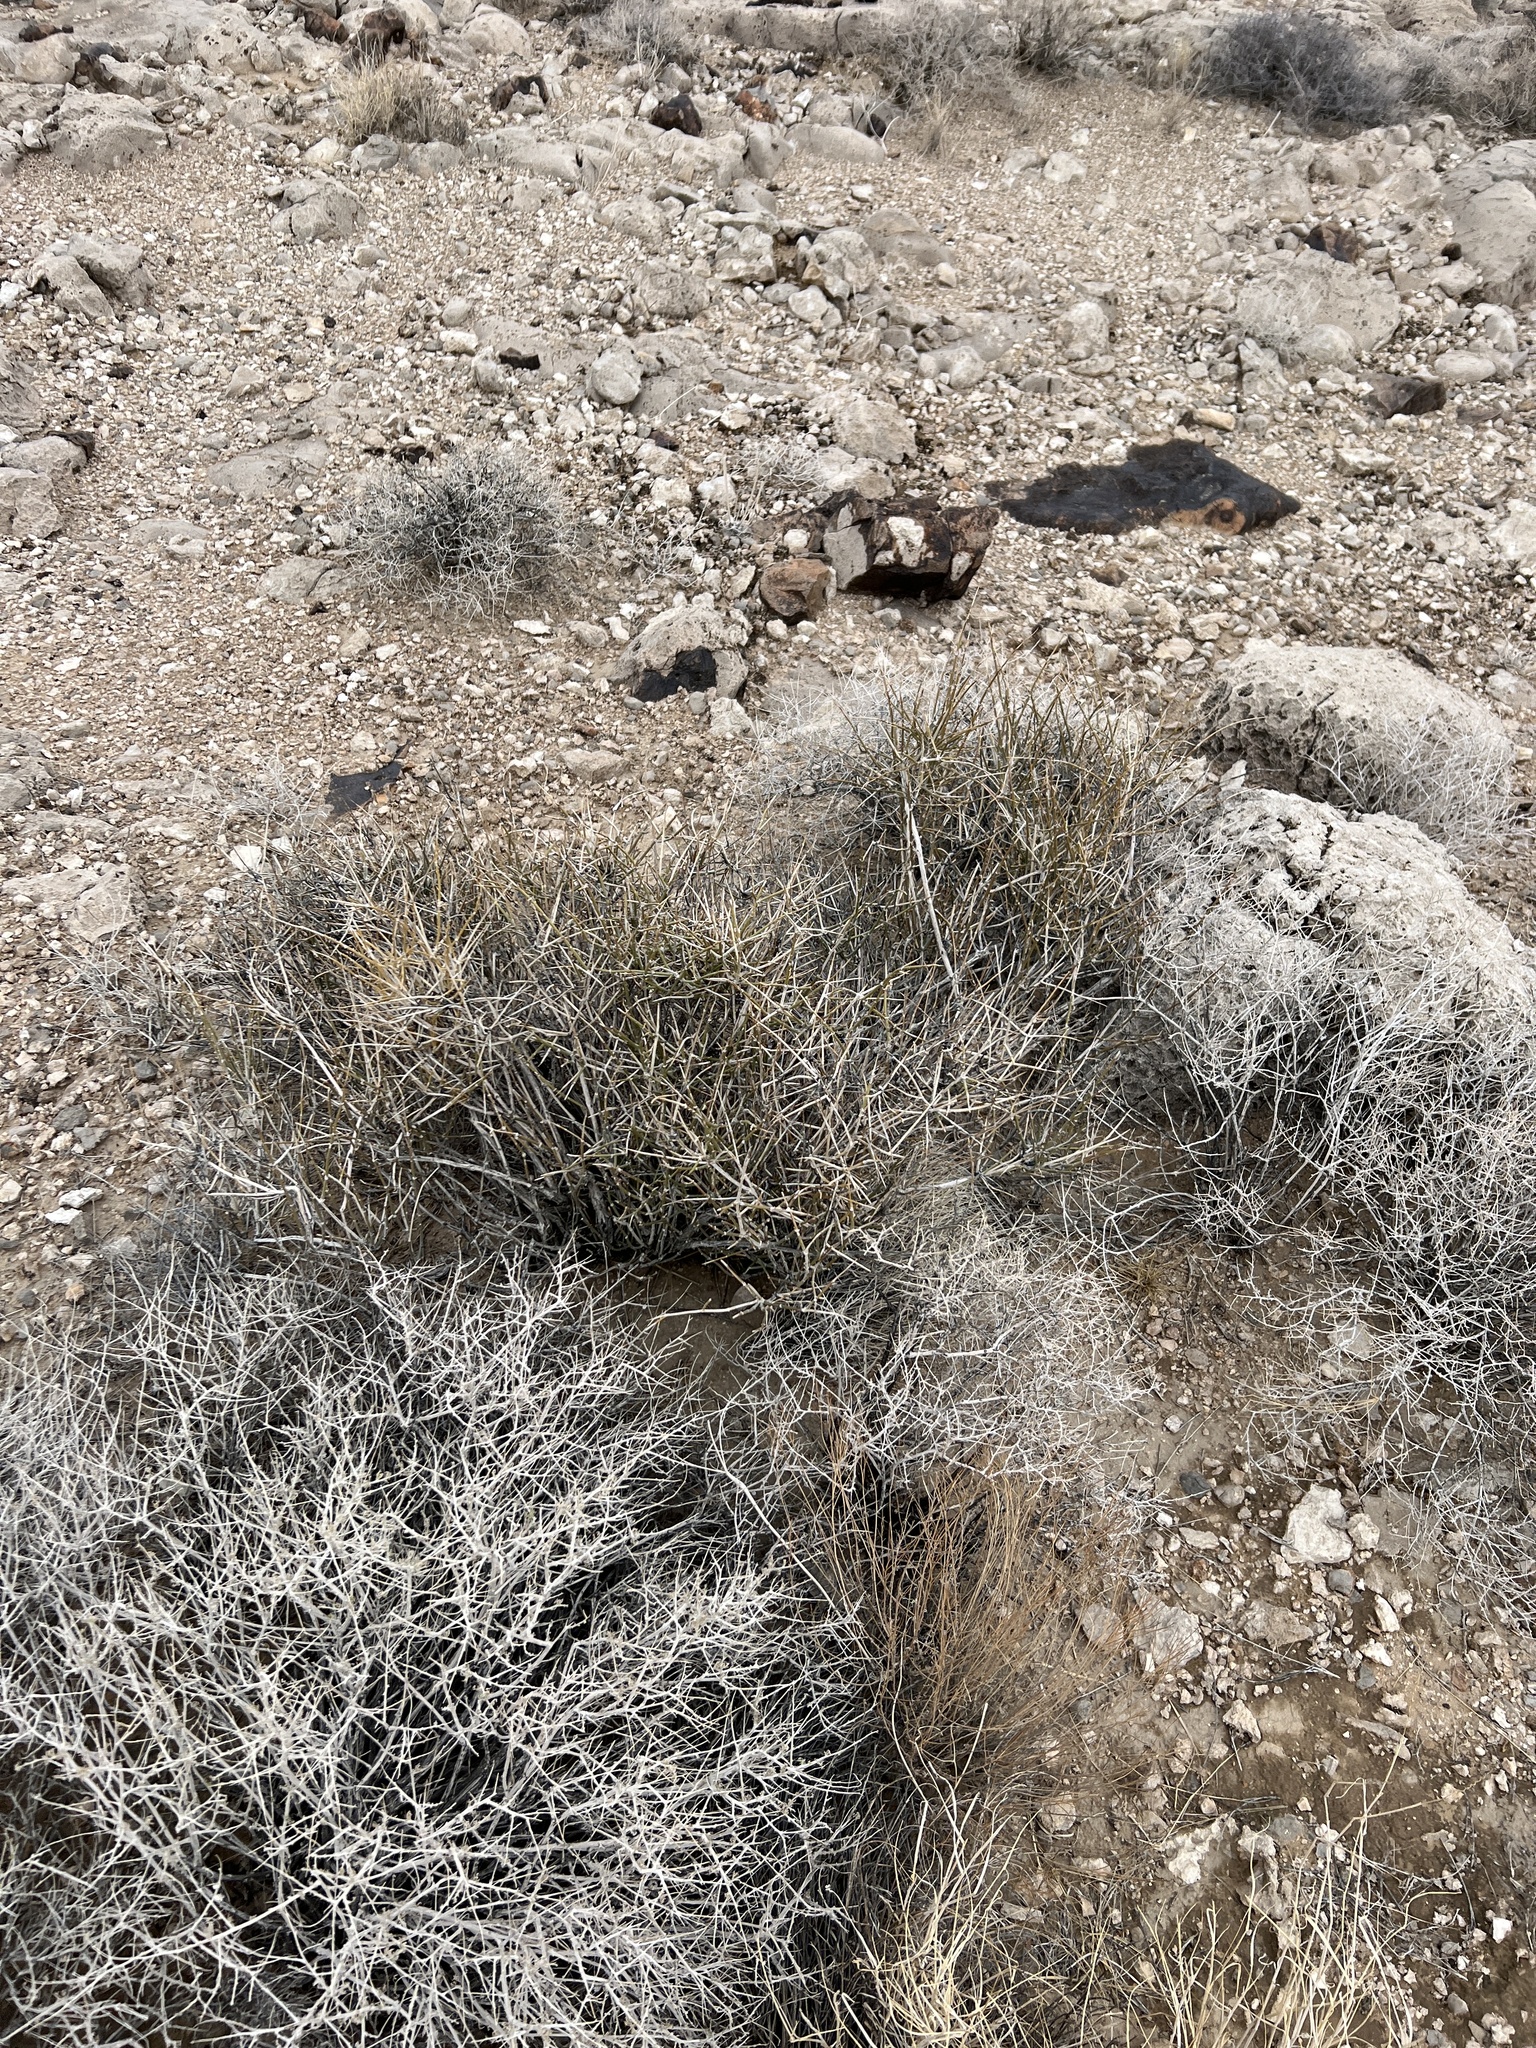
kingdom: Plantae
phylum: Tracheophyta
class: Gnetopsida
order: Ephedrales
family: Ephedraceae
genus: Ephedra
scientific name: Ephedra nevadensis
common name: Gray ephedra
